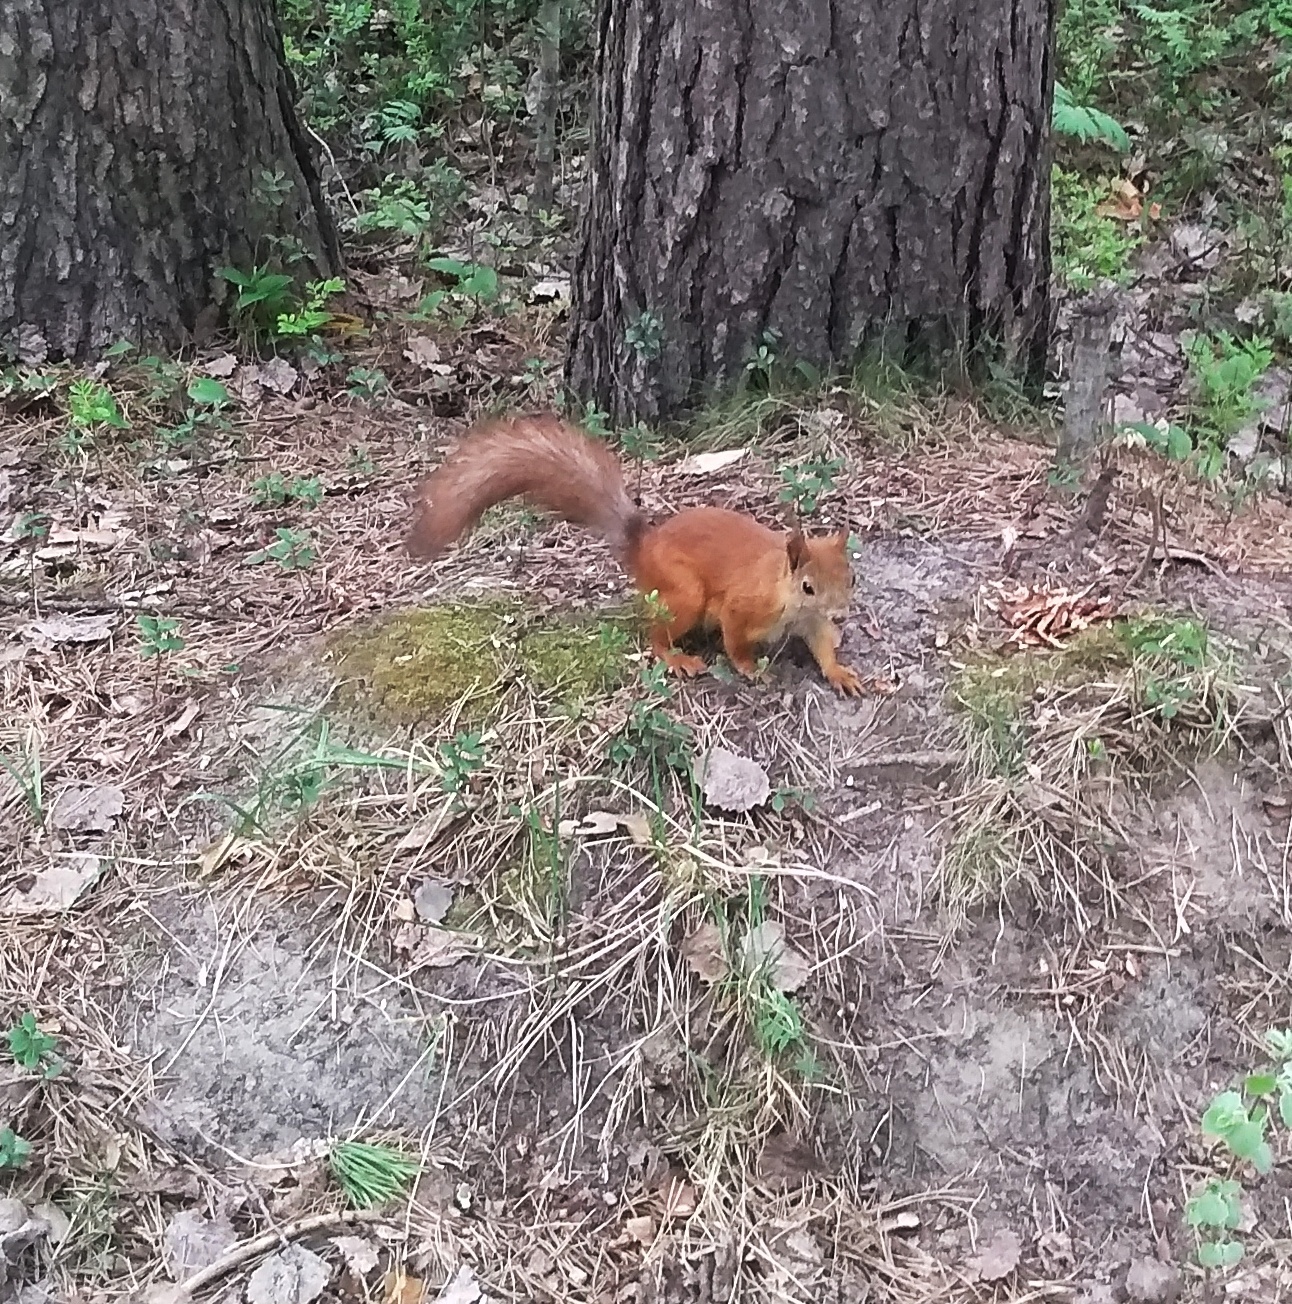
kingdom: Animalia
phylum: Chordata
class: Mammalia
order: Rodentia
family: Sciuridae
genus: Sciurus
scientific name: Sciurus vulgaris
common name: Eurasian red squirrel
